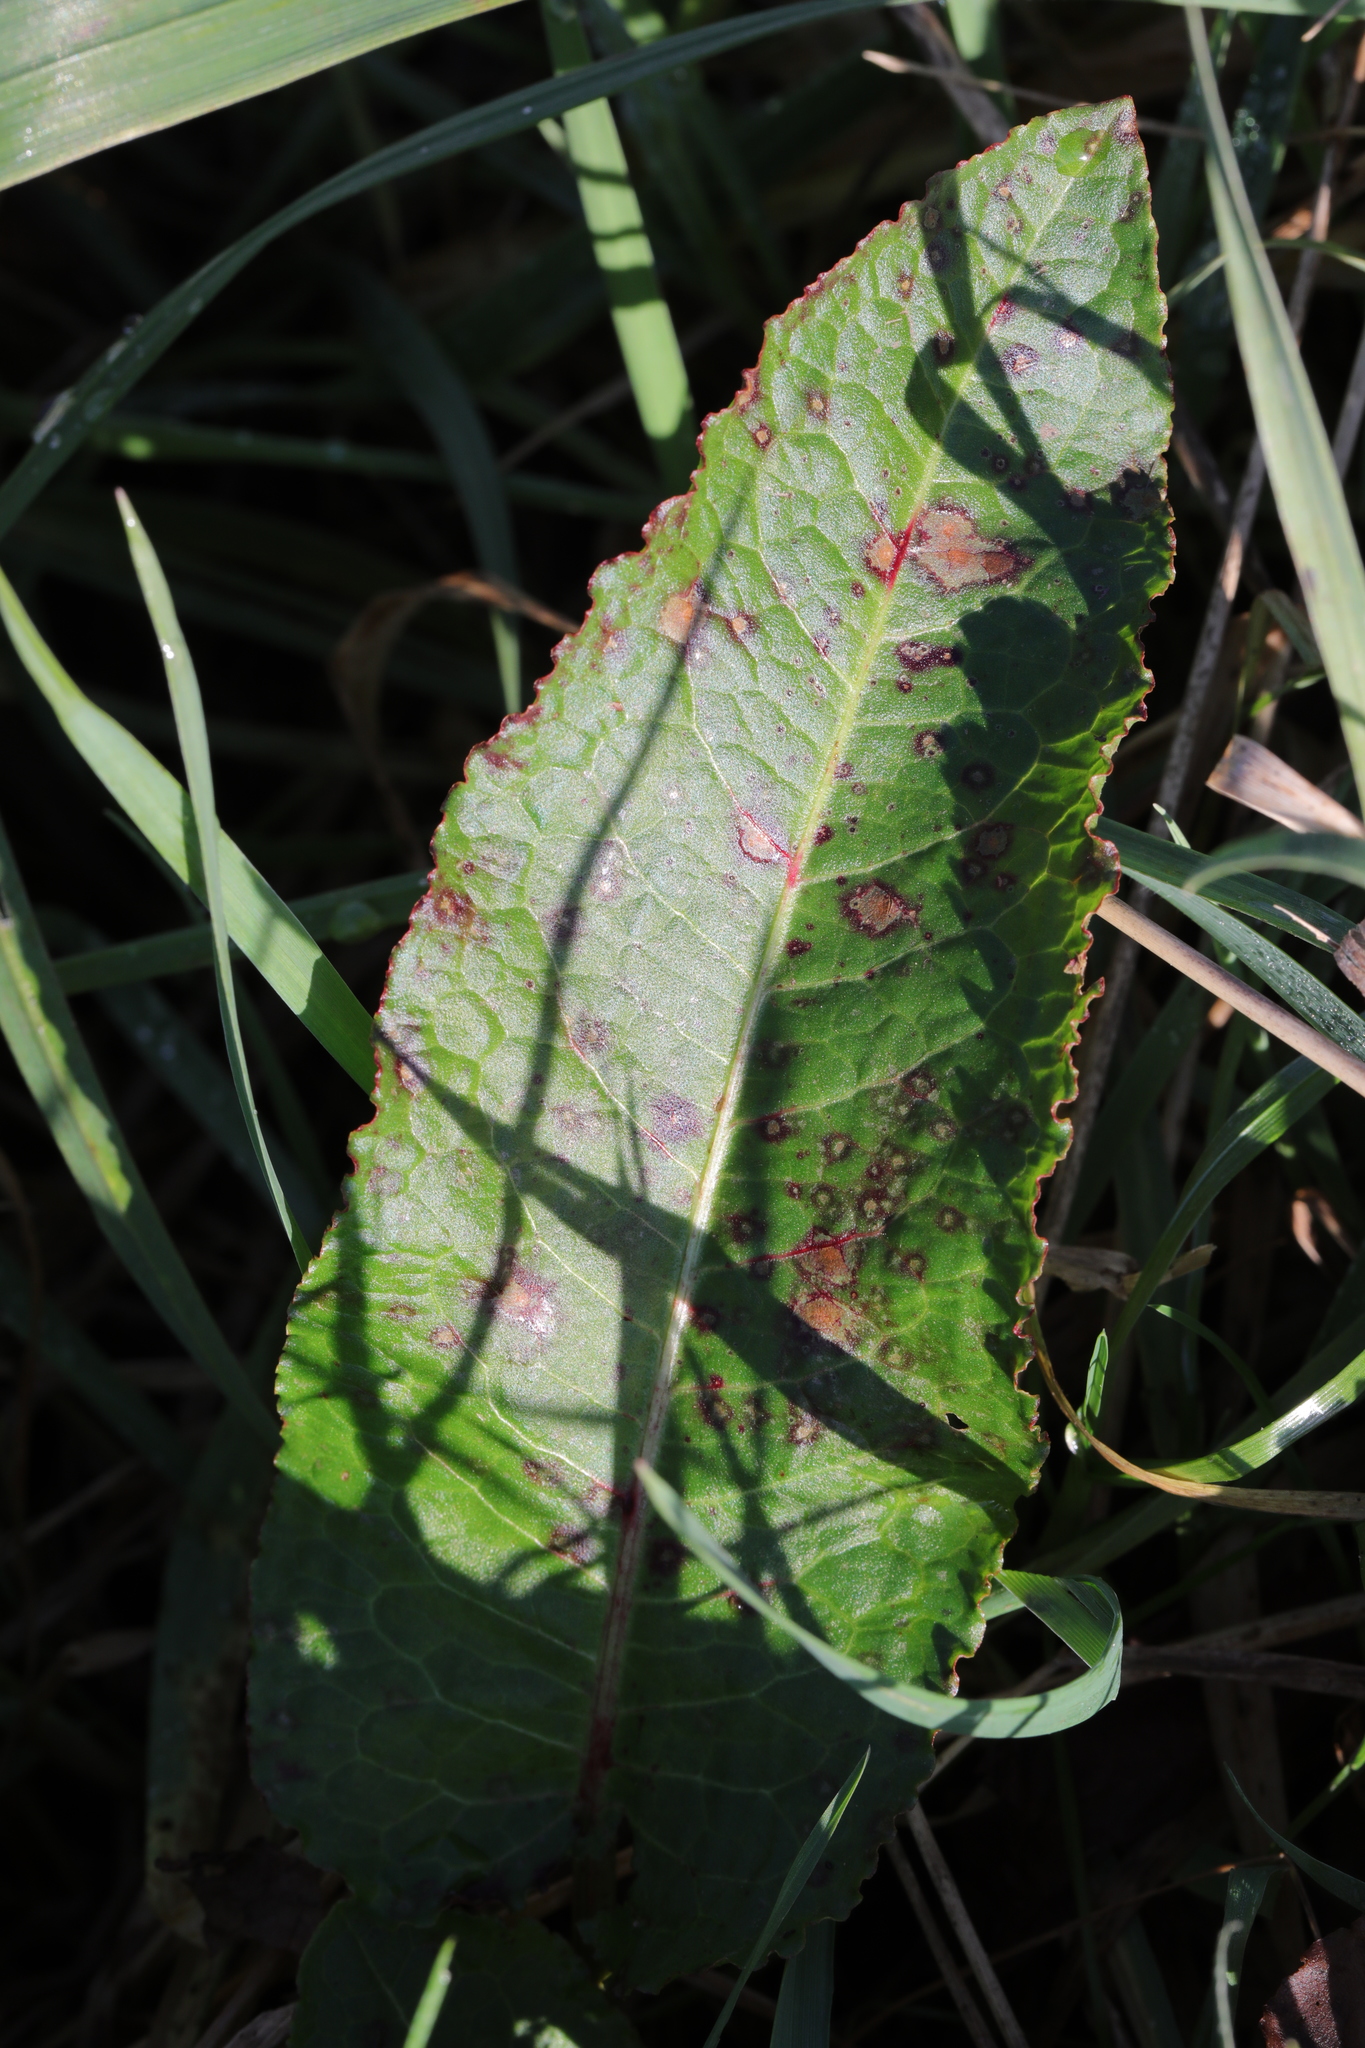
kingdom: Plantae
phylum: Tracheophyta
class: Magnoliopsida
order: Caryophyllales
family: Polygonaceae
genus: Rumex
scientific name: Rumex obtusifolius
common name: Bitter dock
